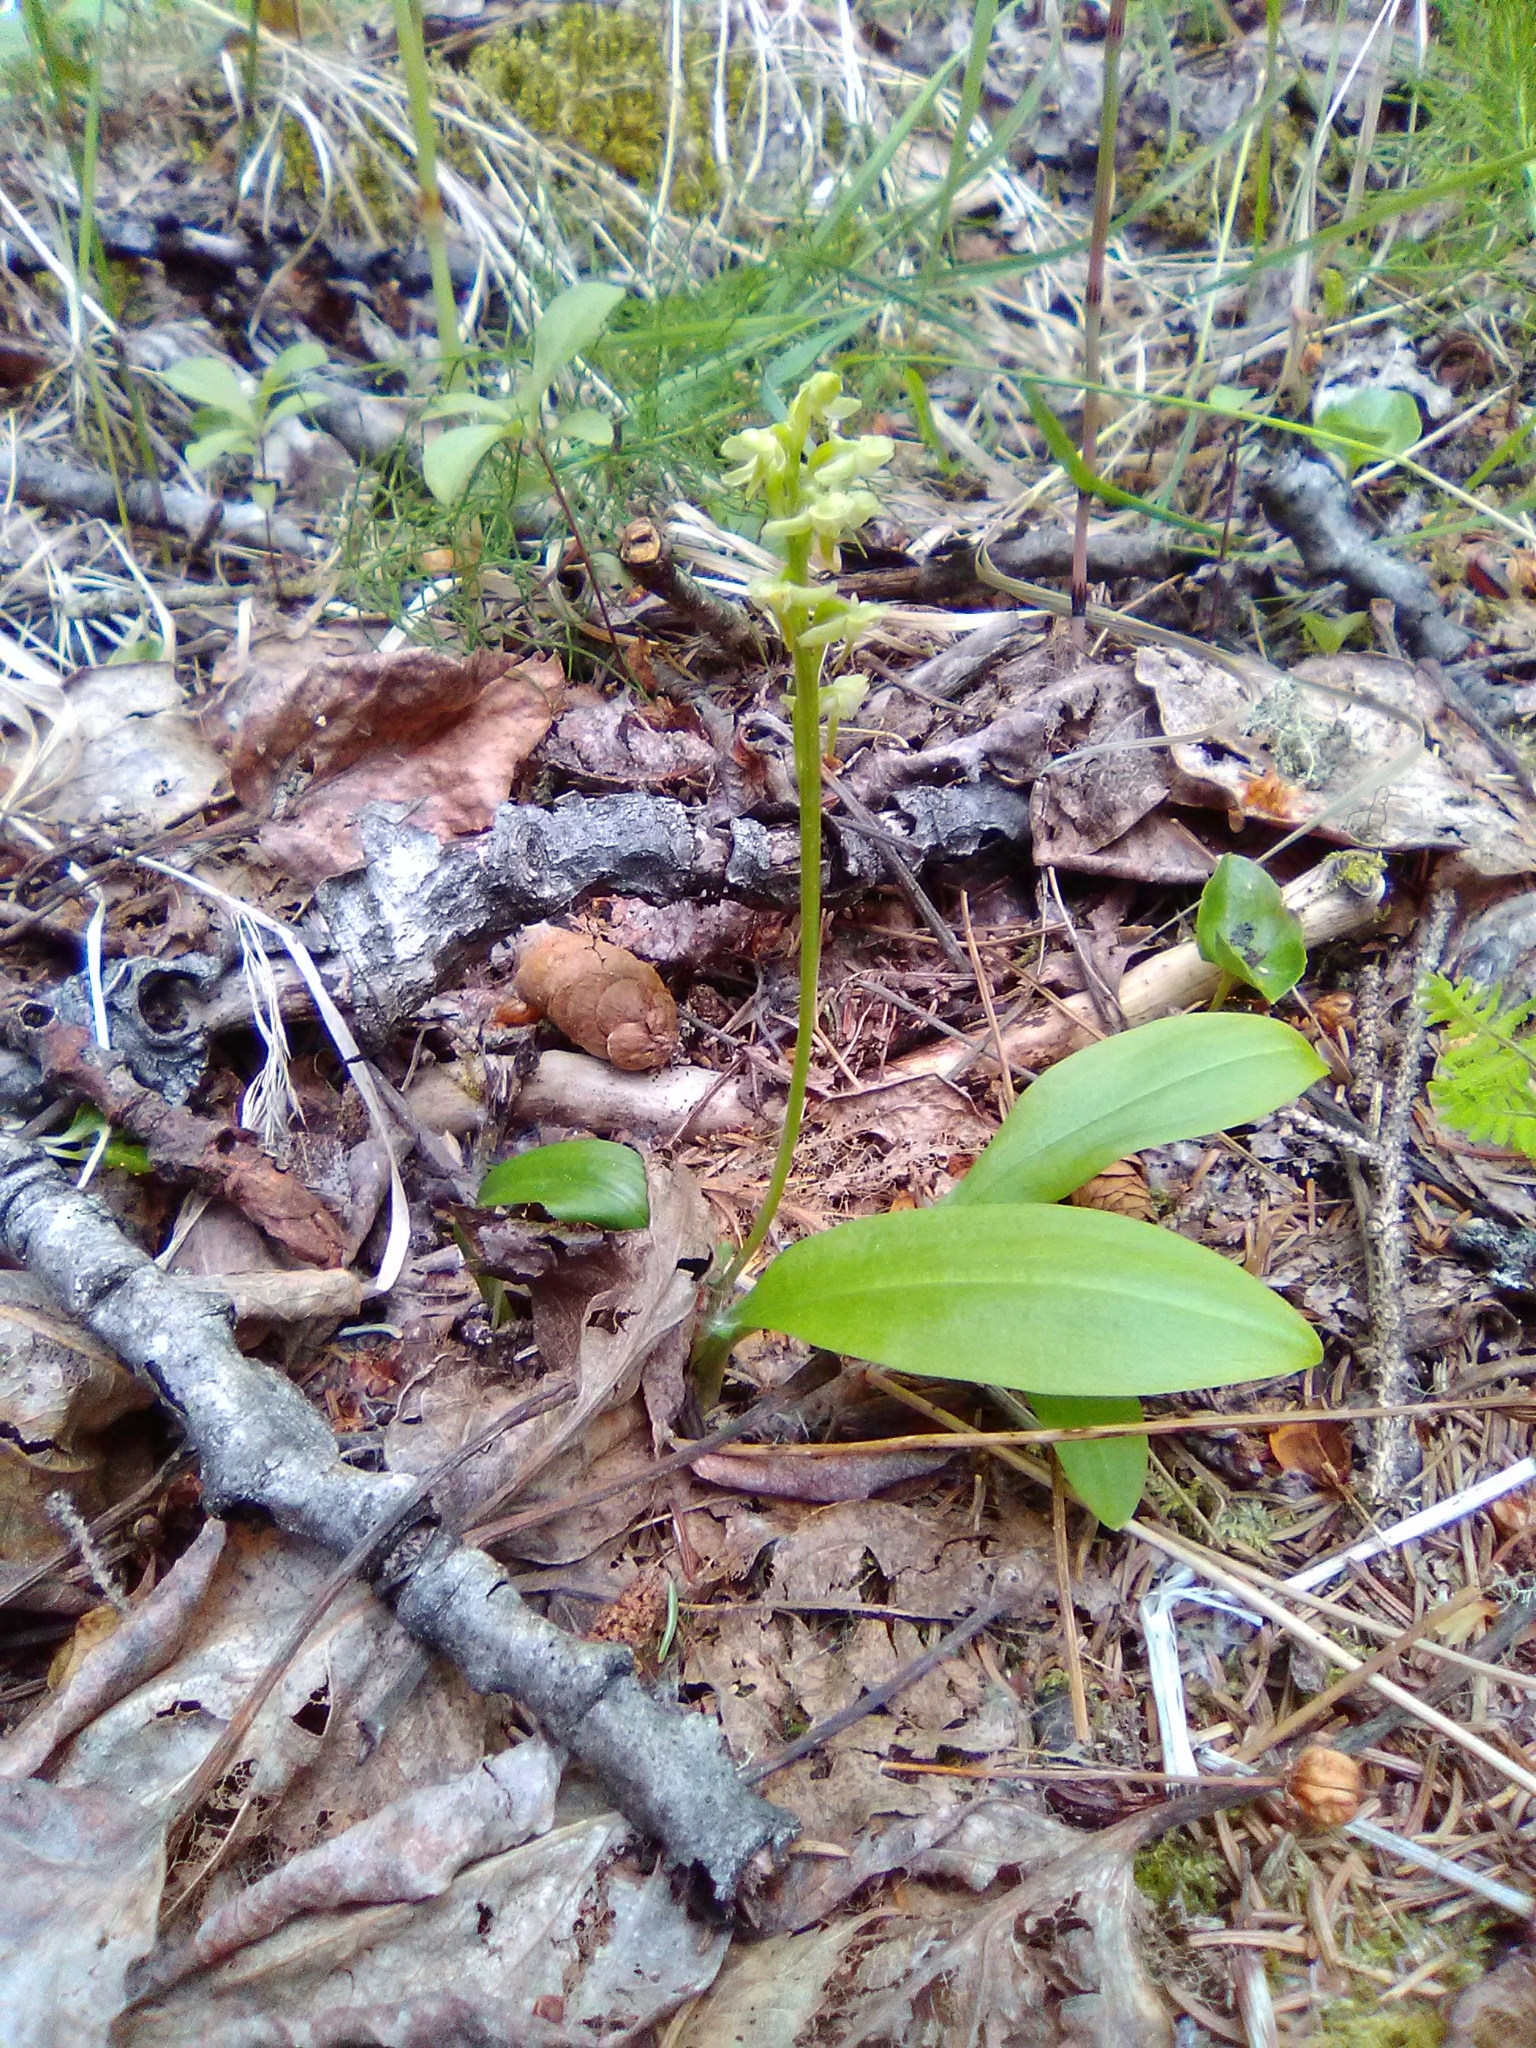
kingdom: Plantae
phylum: Tracheophyta
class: Liliopsida
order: Asparagales
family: Orchidaceae
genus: Platanthera
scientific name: Platanthera obtusata
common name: Blunt bog orchid
